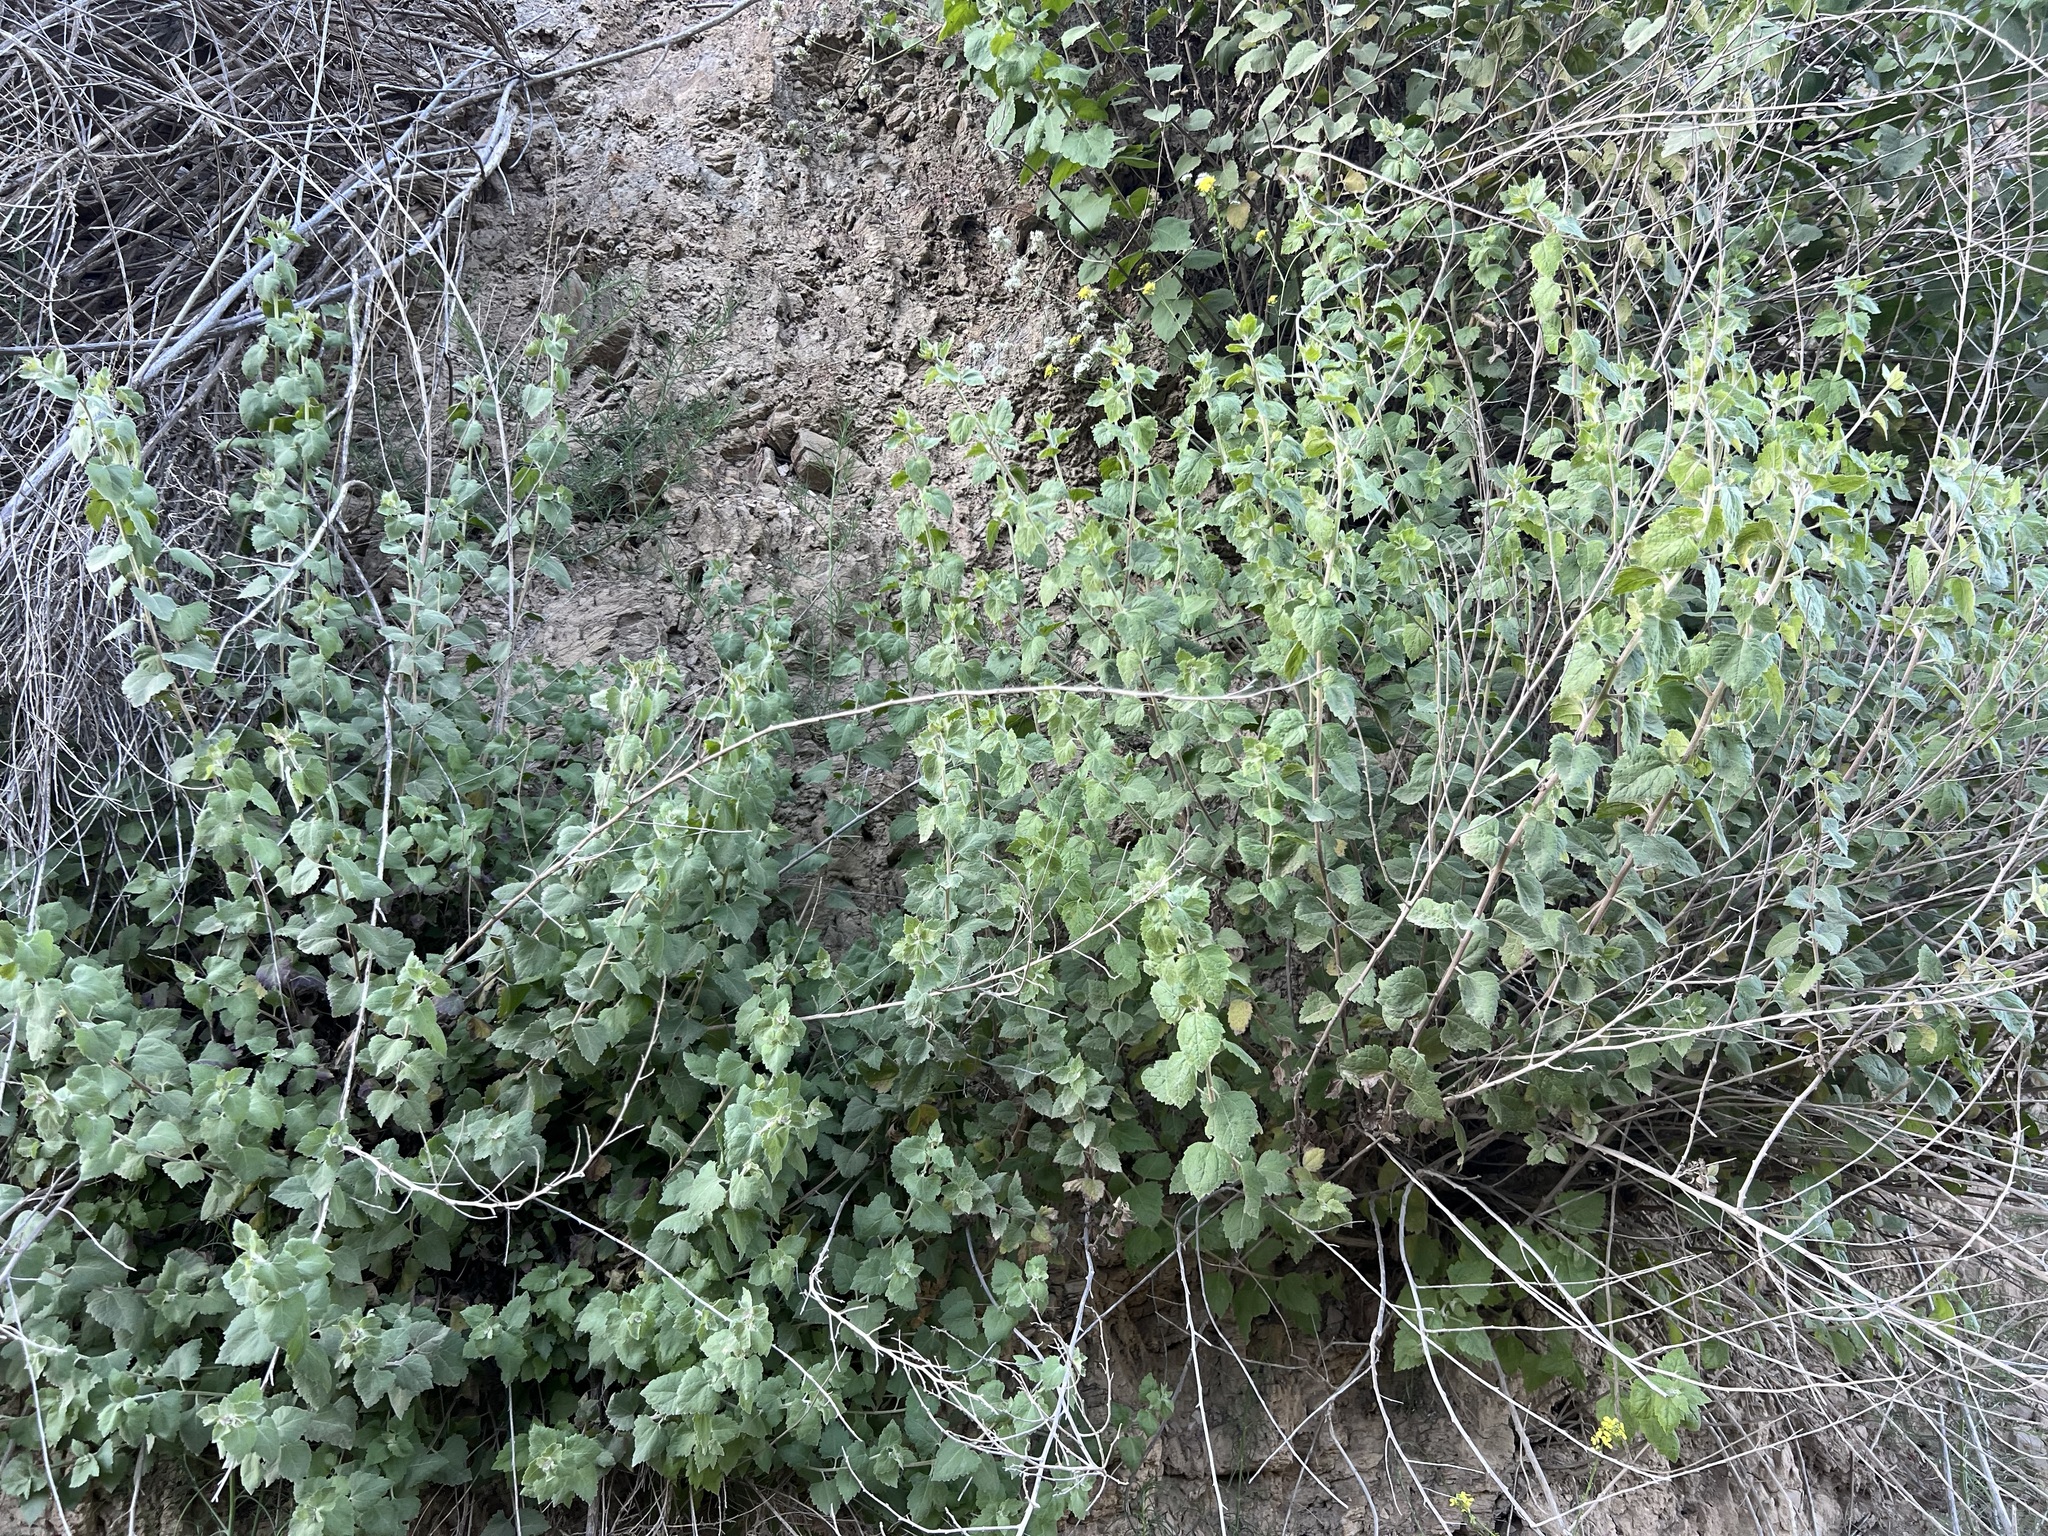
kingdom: Plantae
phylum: Tracheophyta
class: Magnoliopsida
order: Asterales
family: Asteraceae
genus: Brickellia
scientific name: Brickellia californica
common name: California brickellbush
